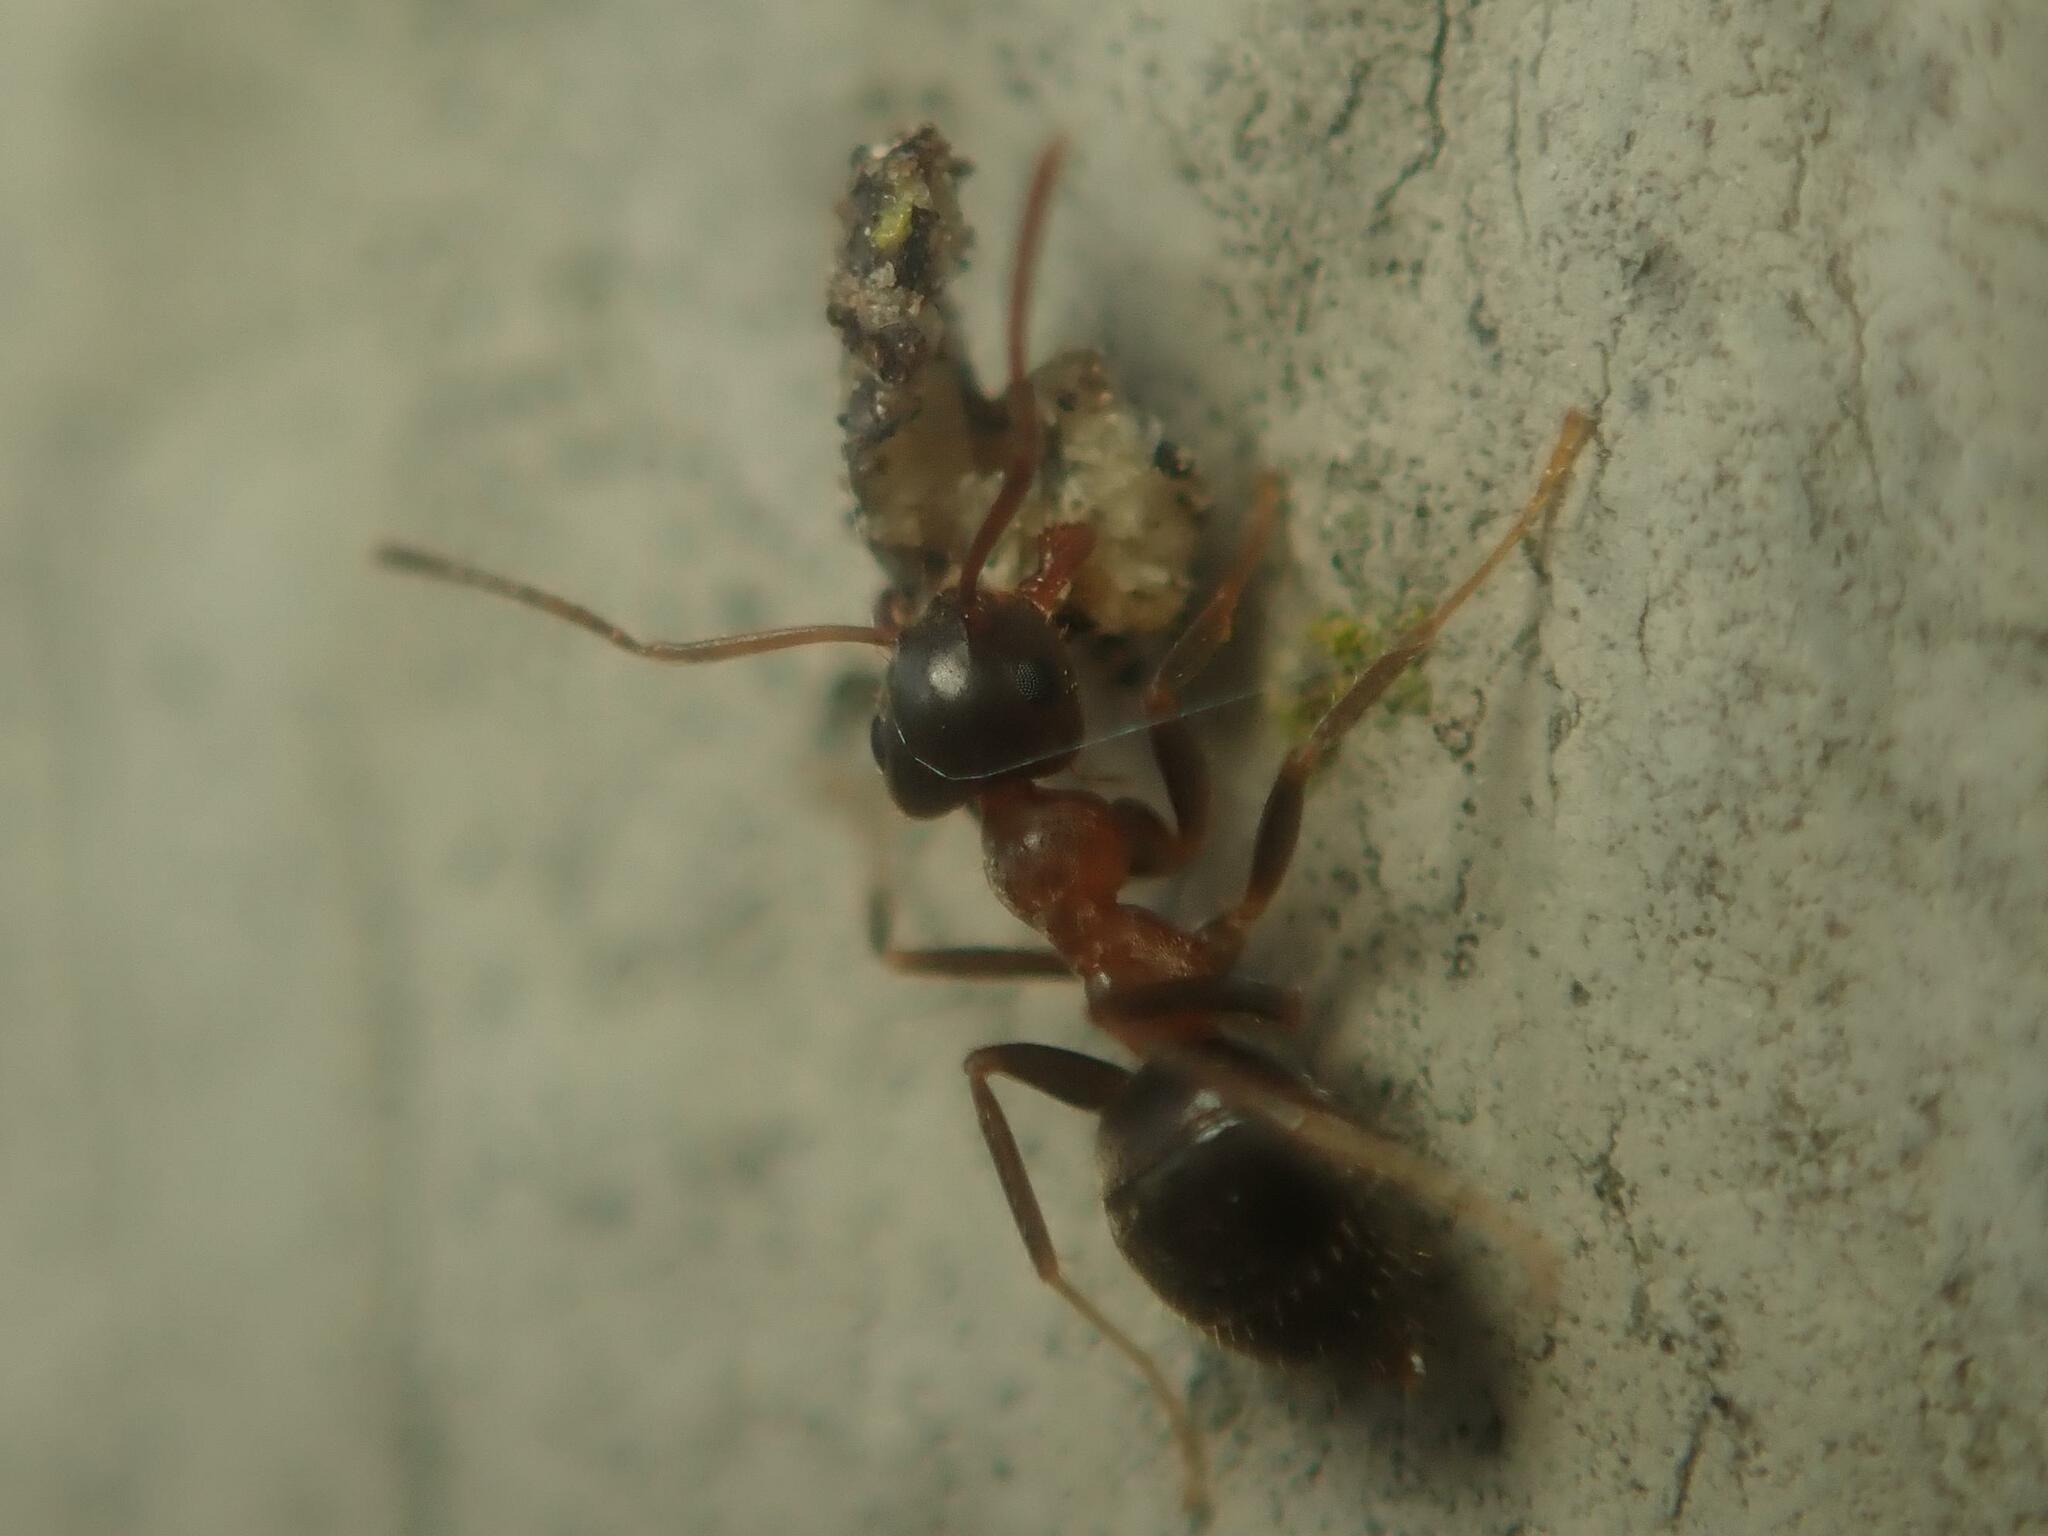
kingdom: Animalia
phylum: Arthropoda
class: Insecta
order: Hymenoptera
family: Formicidae
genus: Lasius
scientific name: Lasius emarginatus
